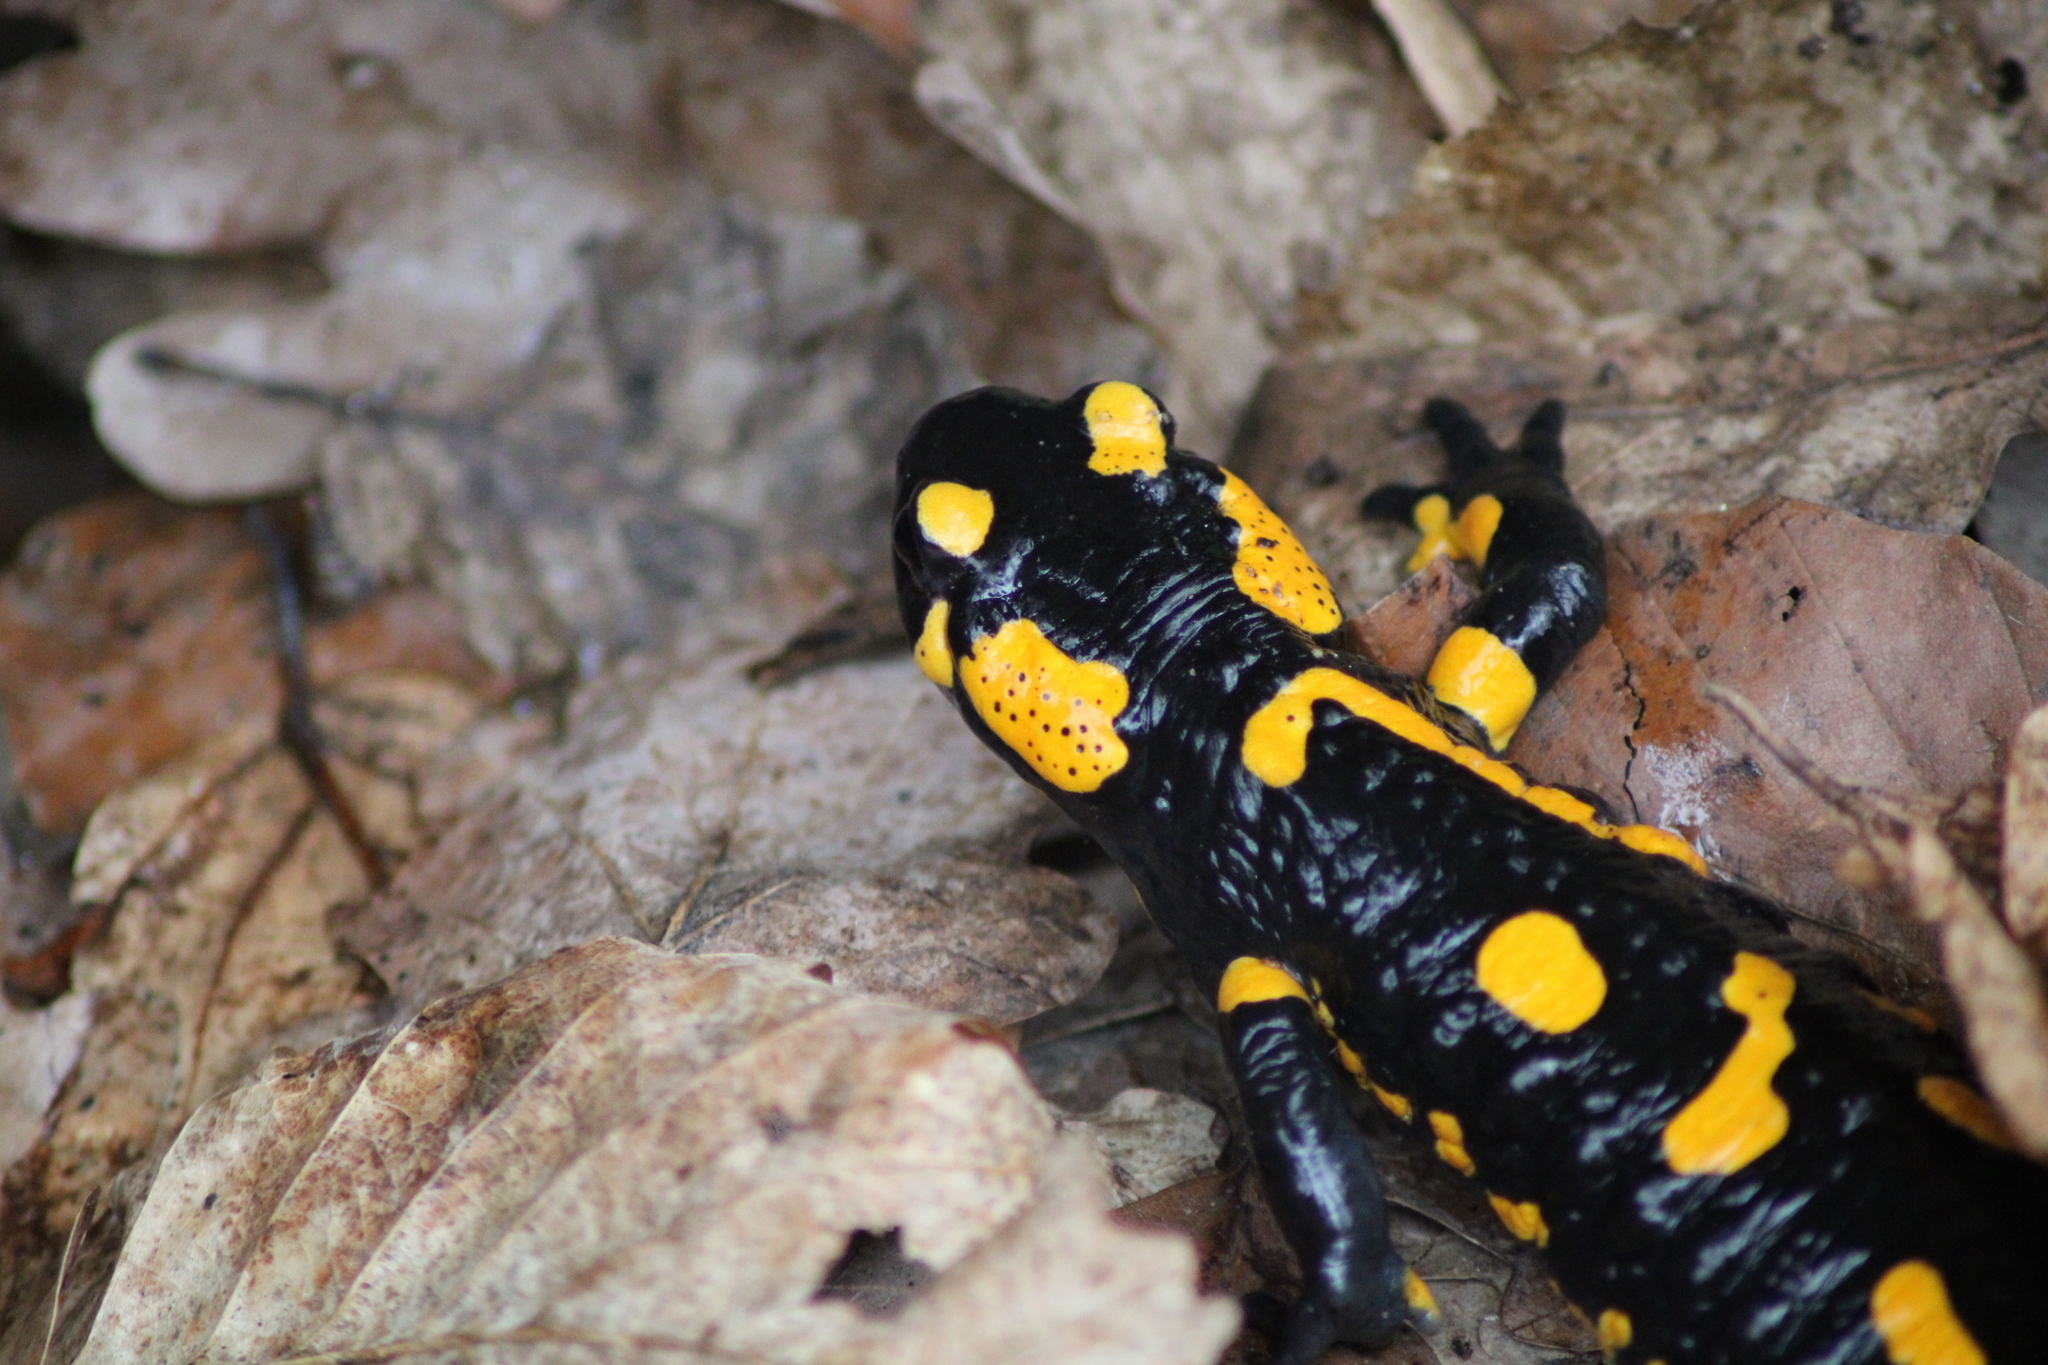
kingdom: Animalia
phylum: Chordata
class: Amphibia
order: Caudata
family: Salamandridae
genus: Salamandra
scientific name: Salamandra salamandra
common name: Fire salamander
